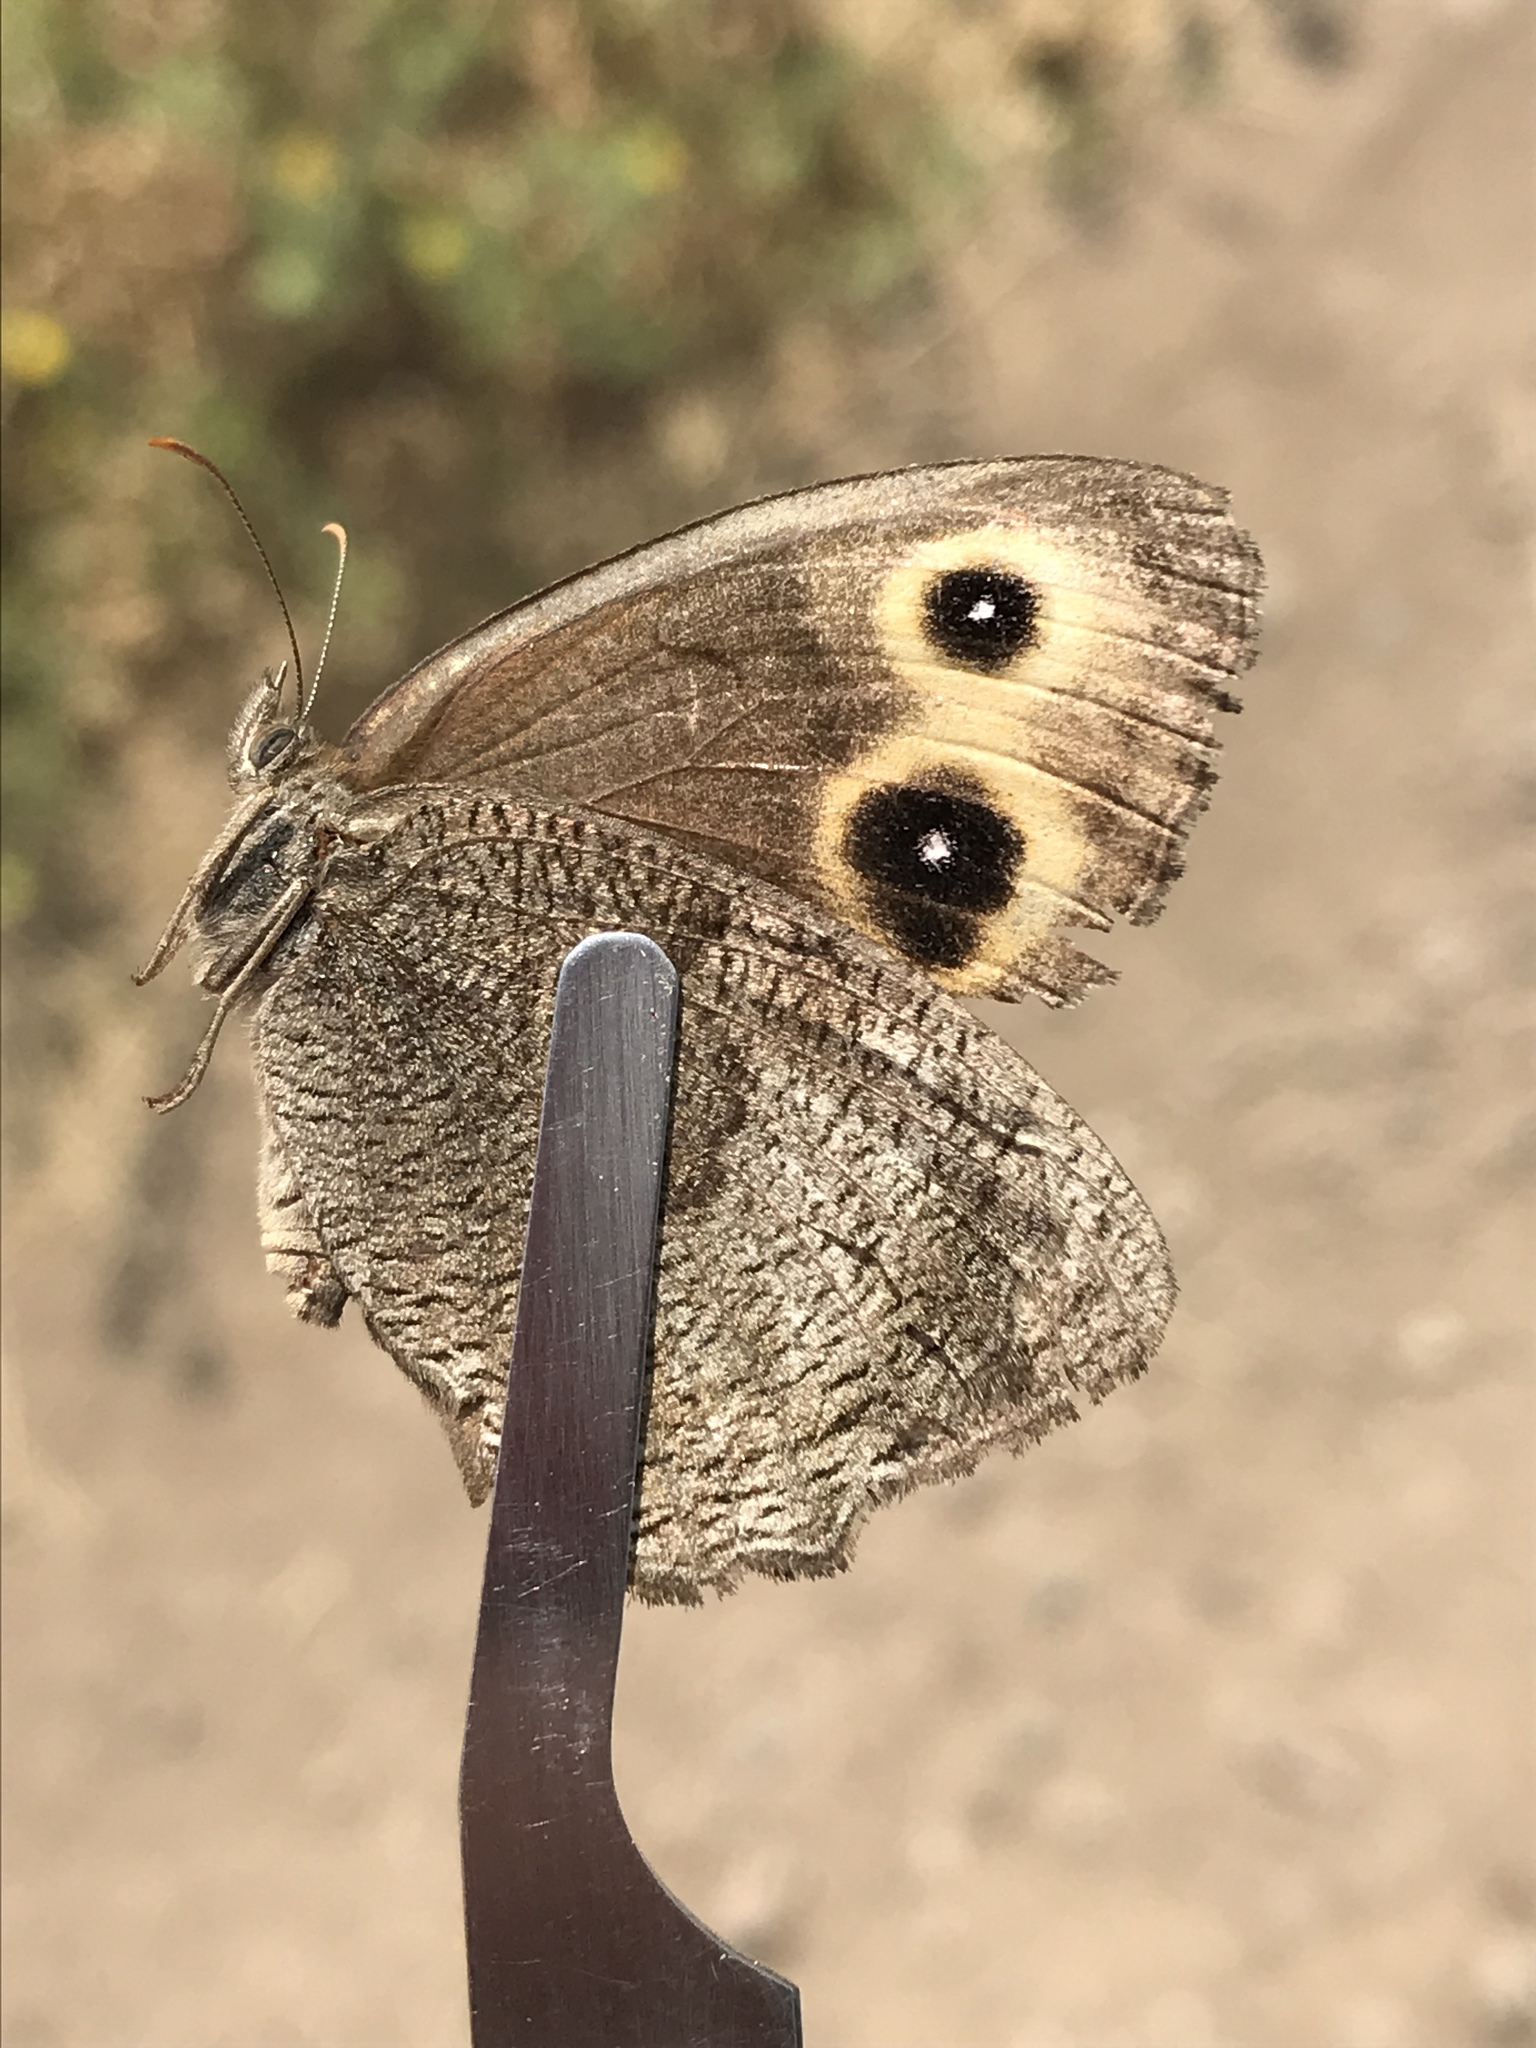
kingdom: Animalia
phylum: Arthropoda
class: Insecta
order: Lepidoptera
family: Nymphalidae
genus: Cercyonis
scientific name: Cercyonis pegala
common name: Common wood-nymph
